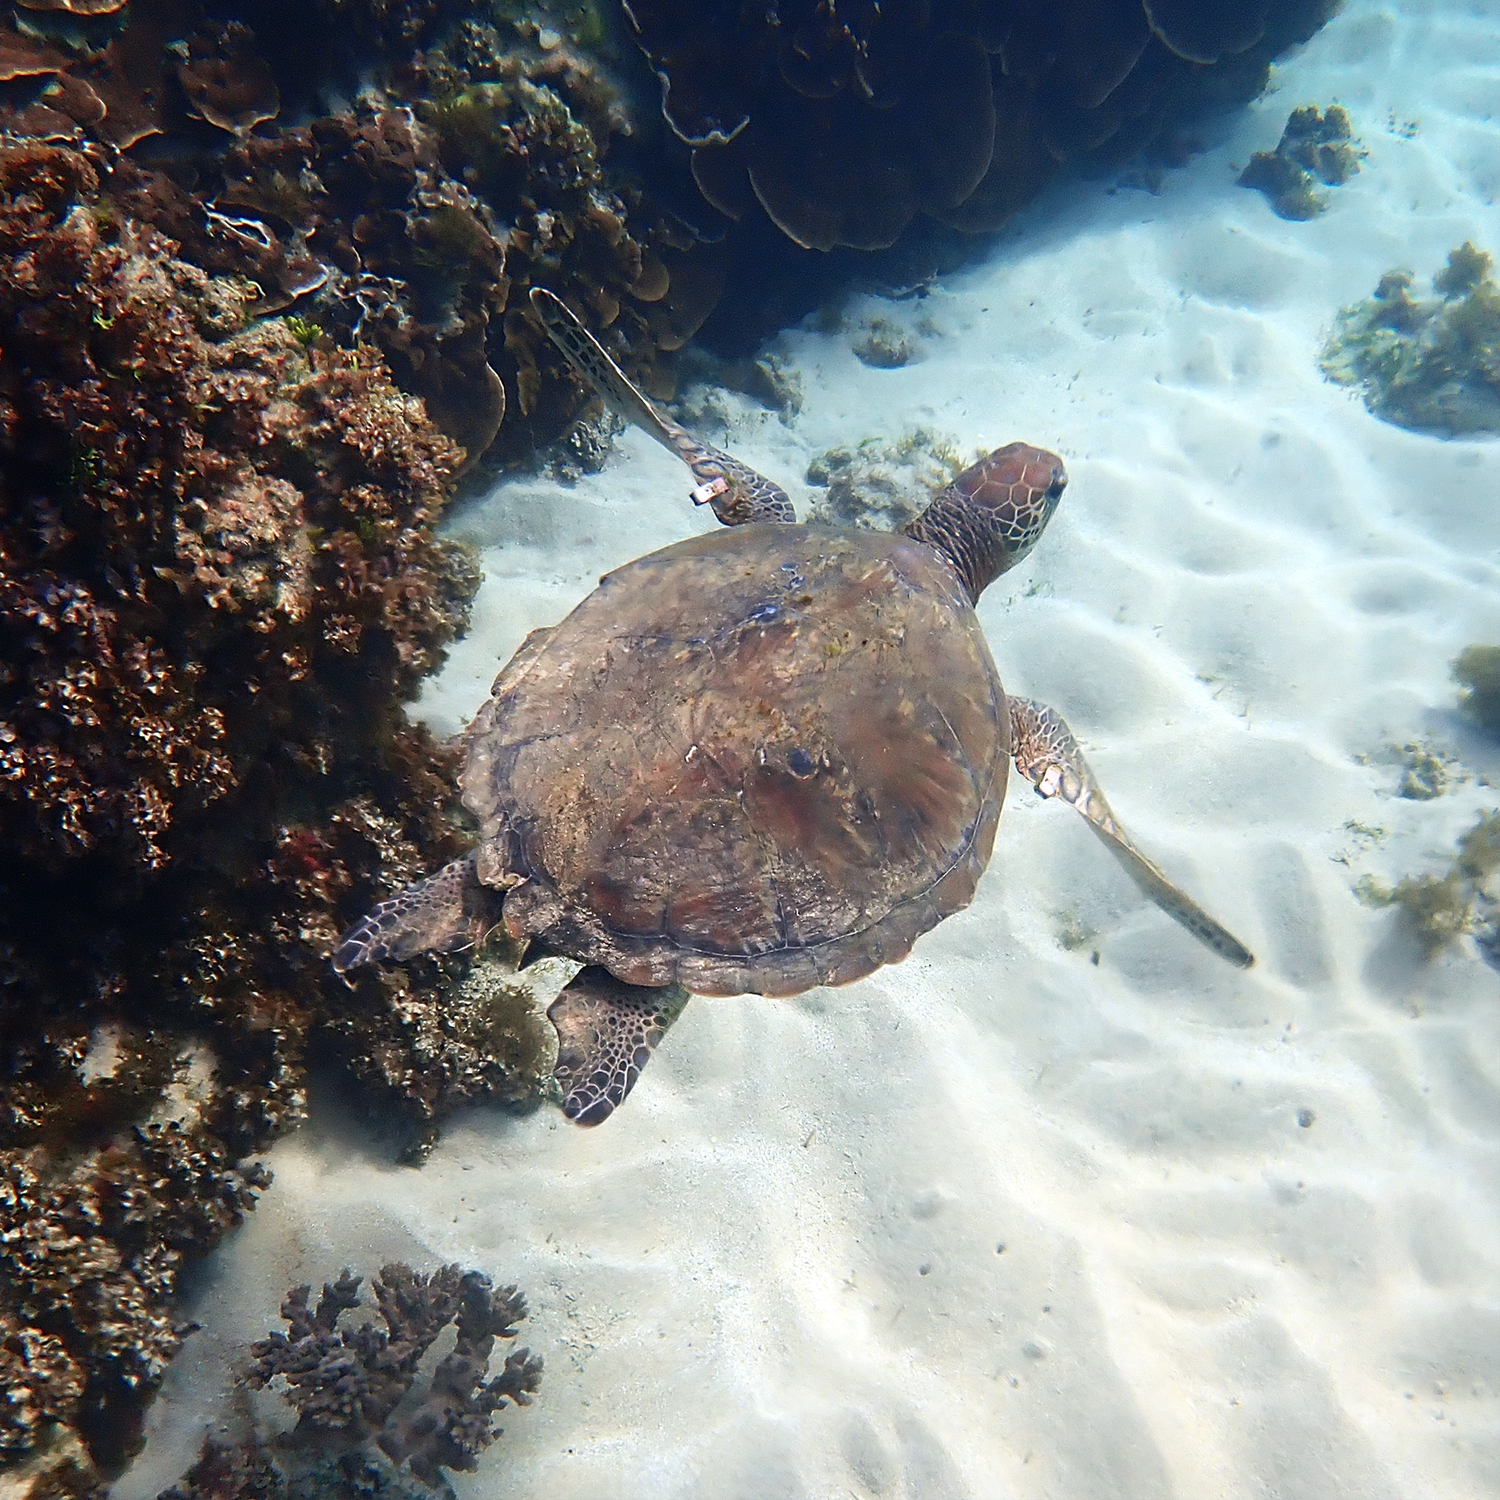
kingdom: Animalia
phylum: Chordata
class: Testudines
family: Cheloniidae
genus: Chelonia
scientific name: Chelonia mydas
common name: Green turtle
